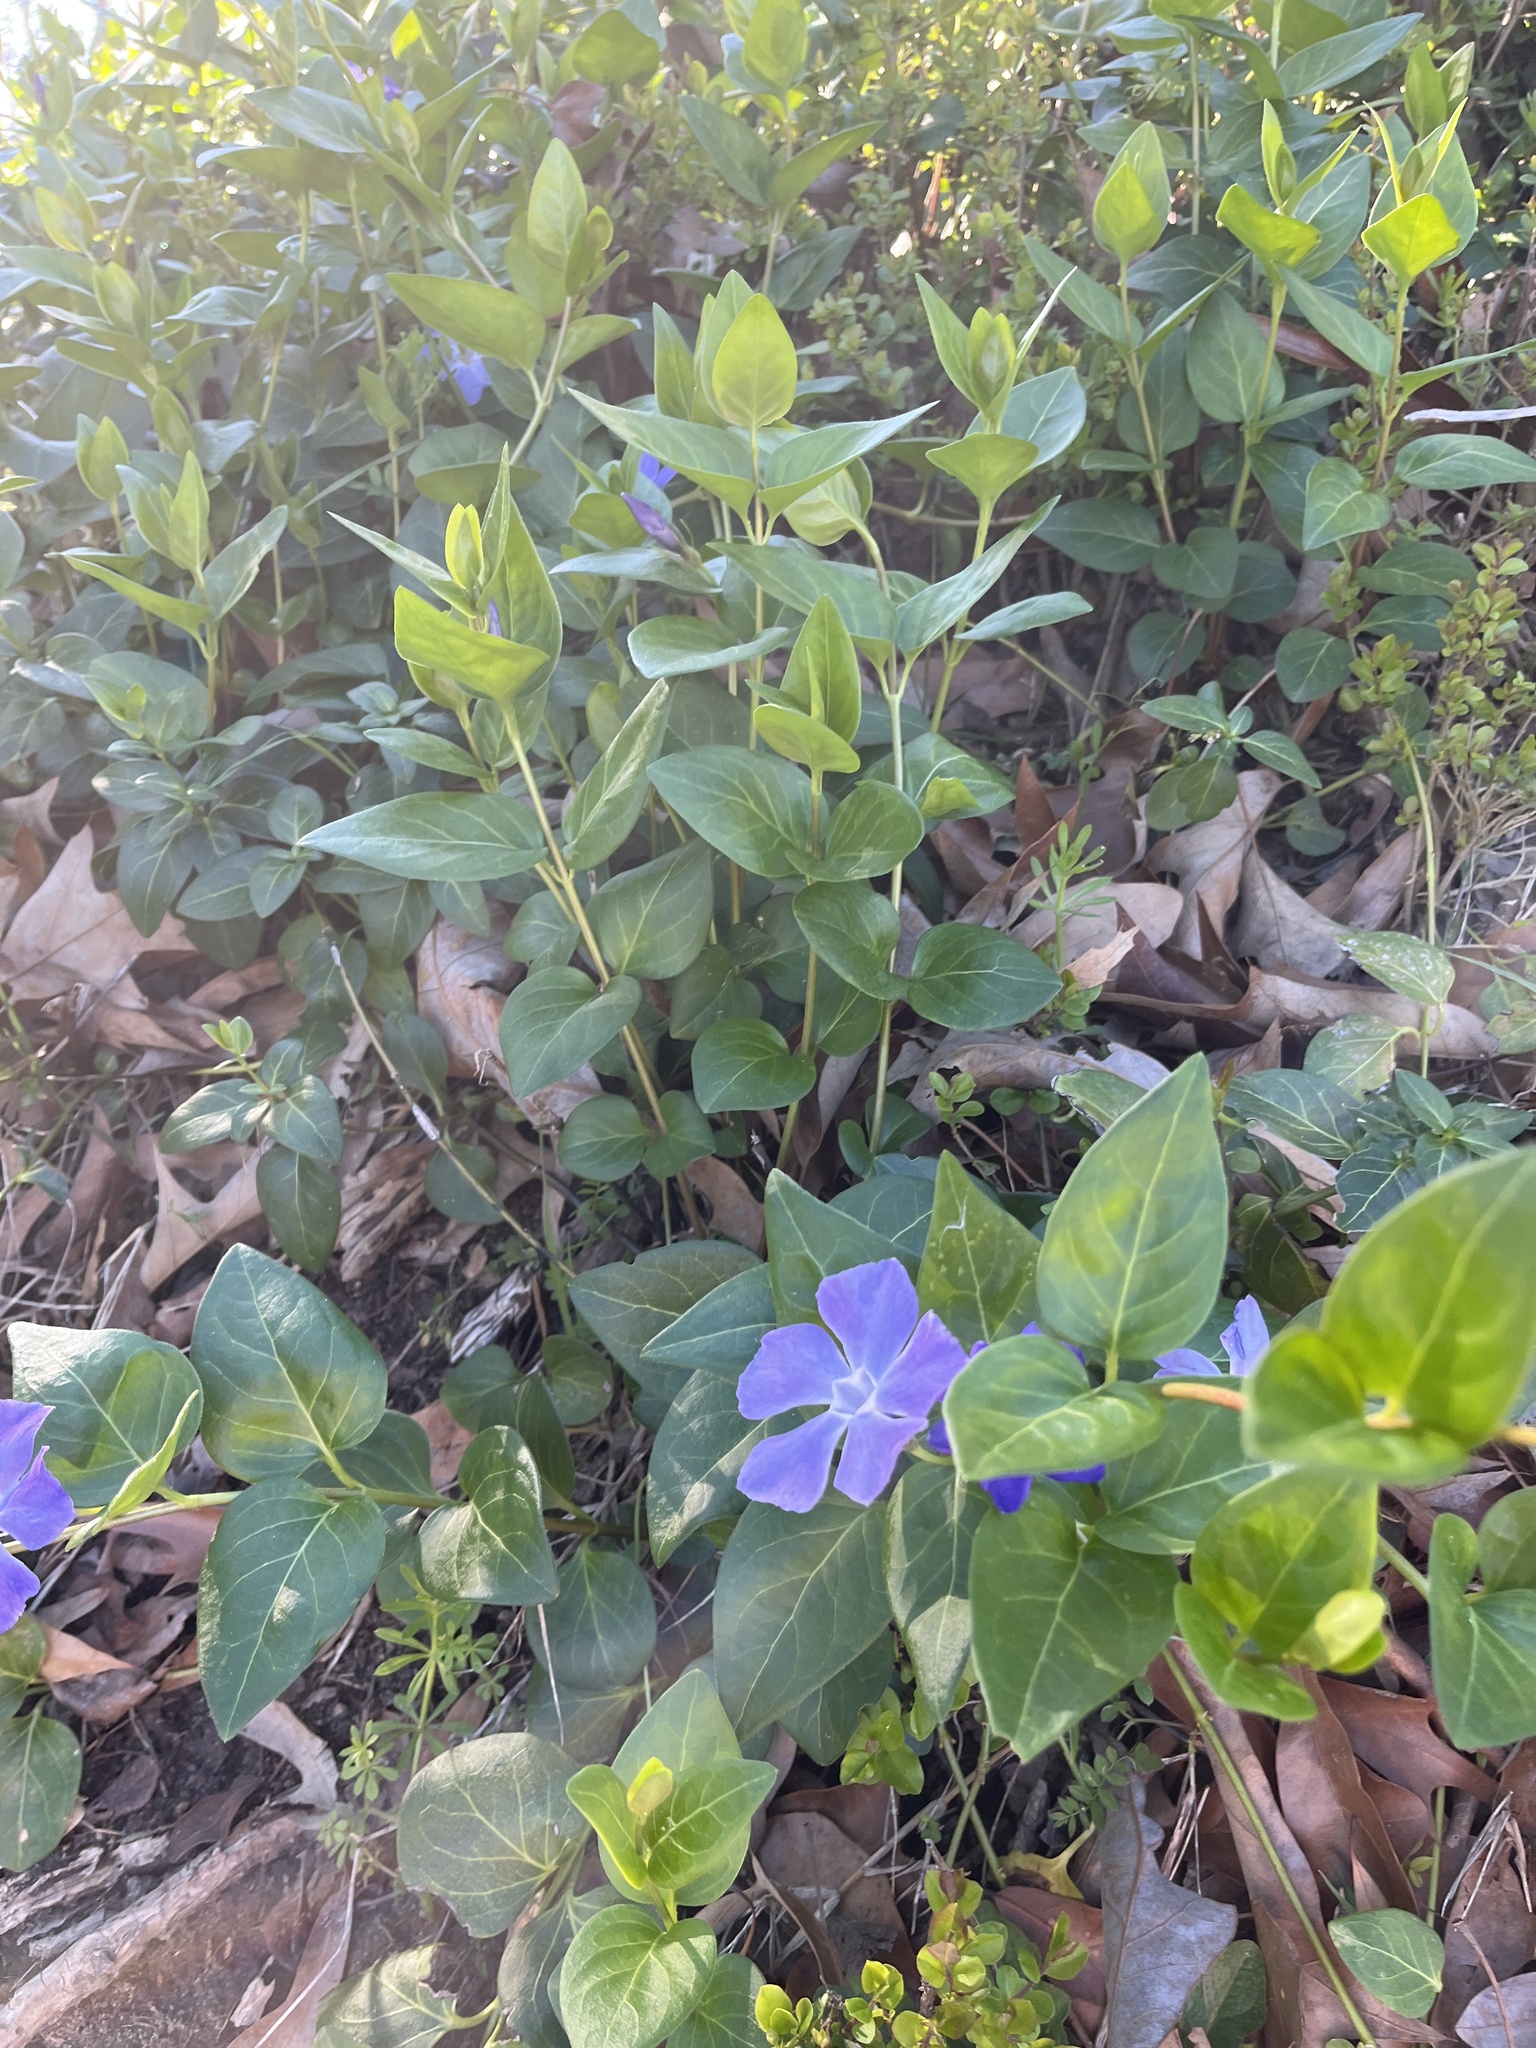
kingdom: Plantae
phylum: Tracheophyta
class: Magnoliopsida
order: Gentianales
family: Apocynaceae
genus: Vinca
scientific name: Vinca major
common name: Greater periwinkle
